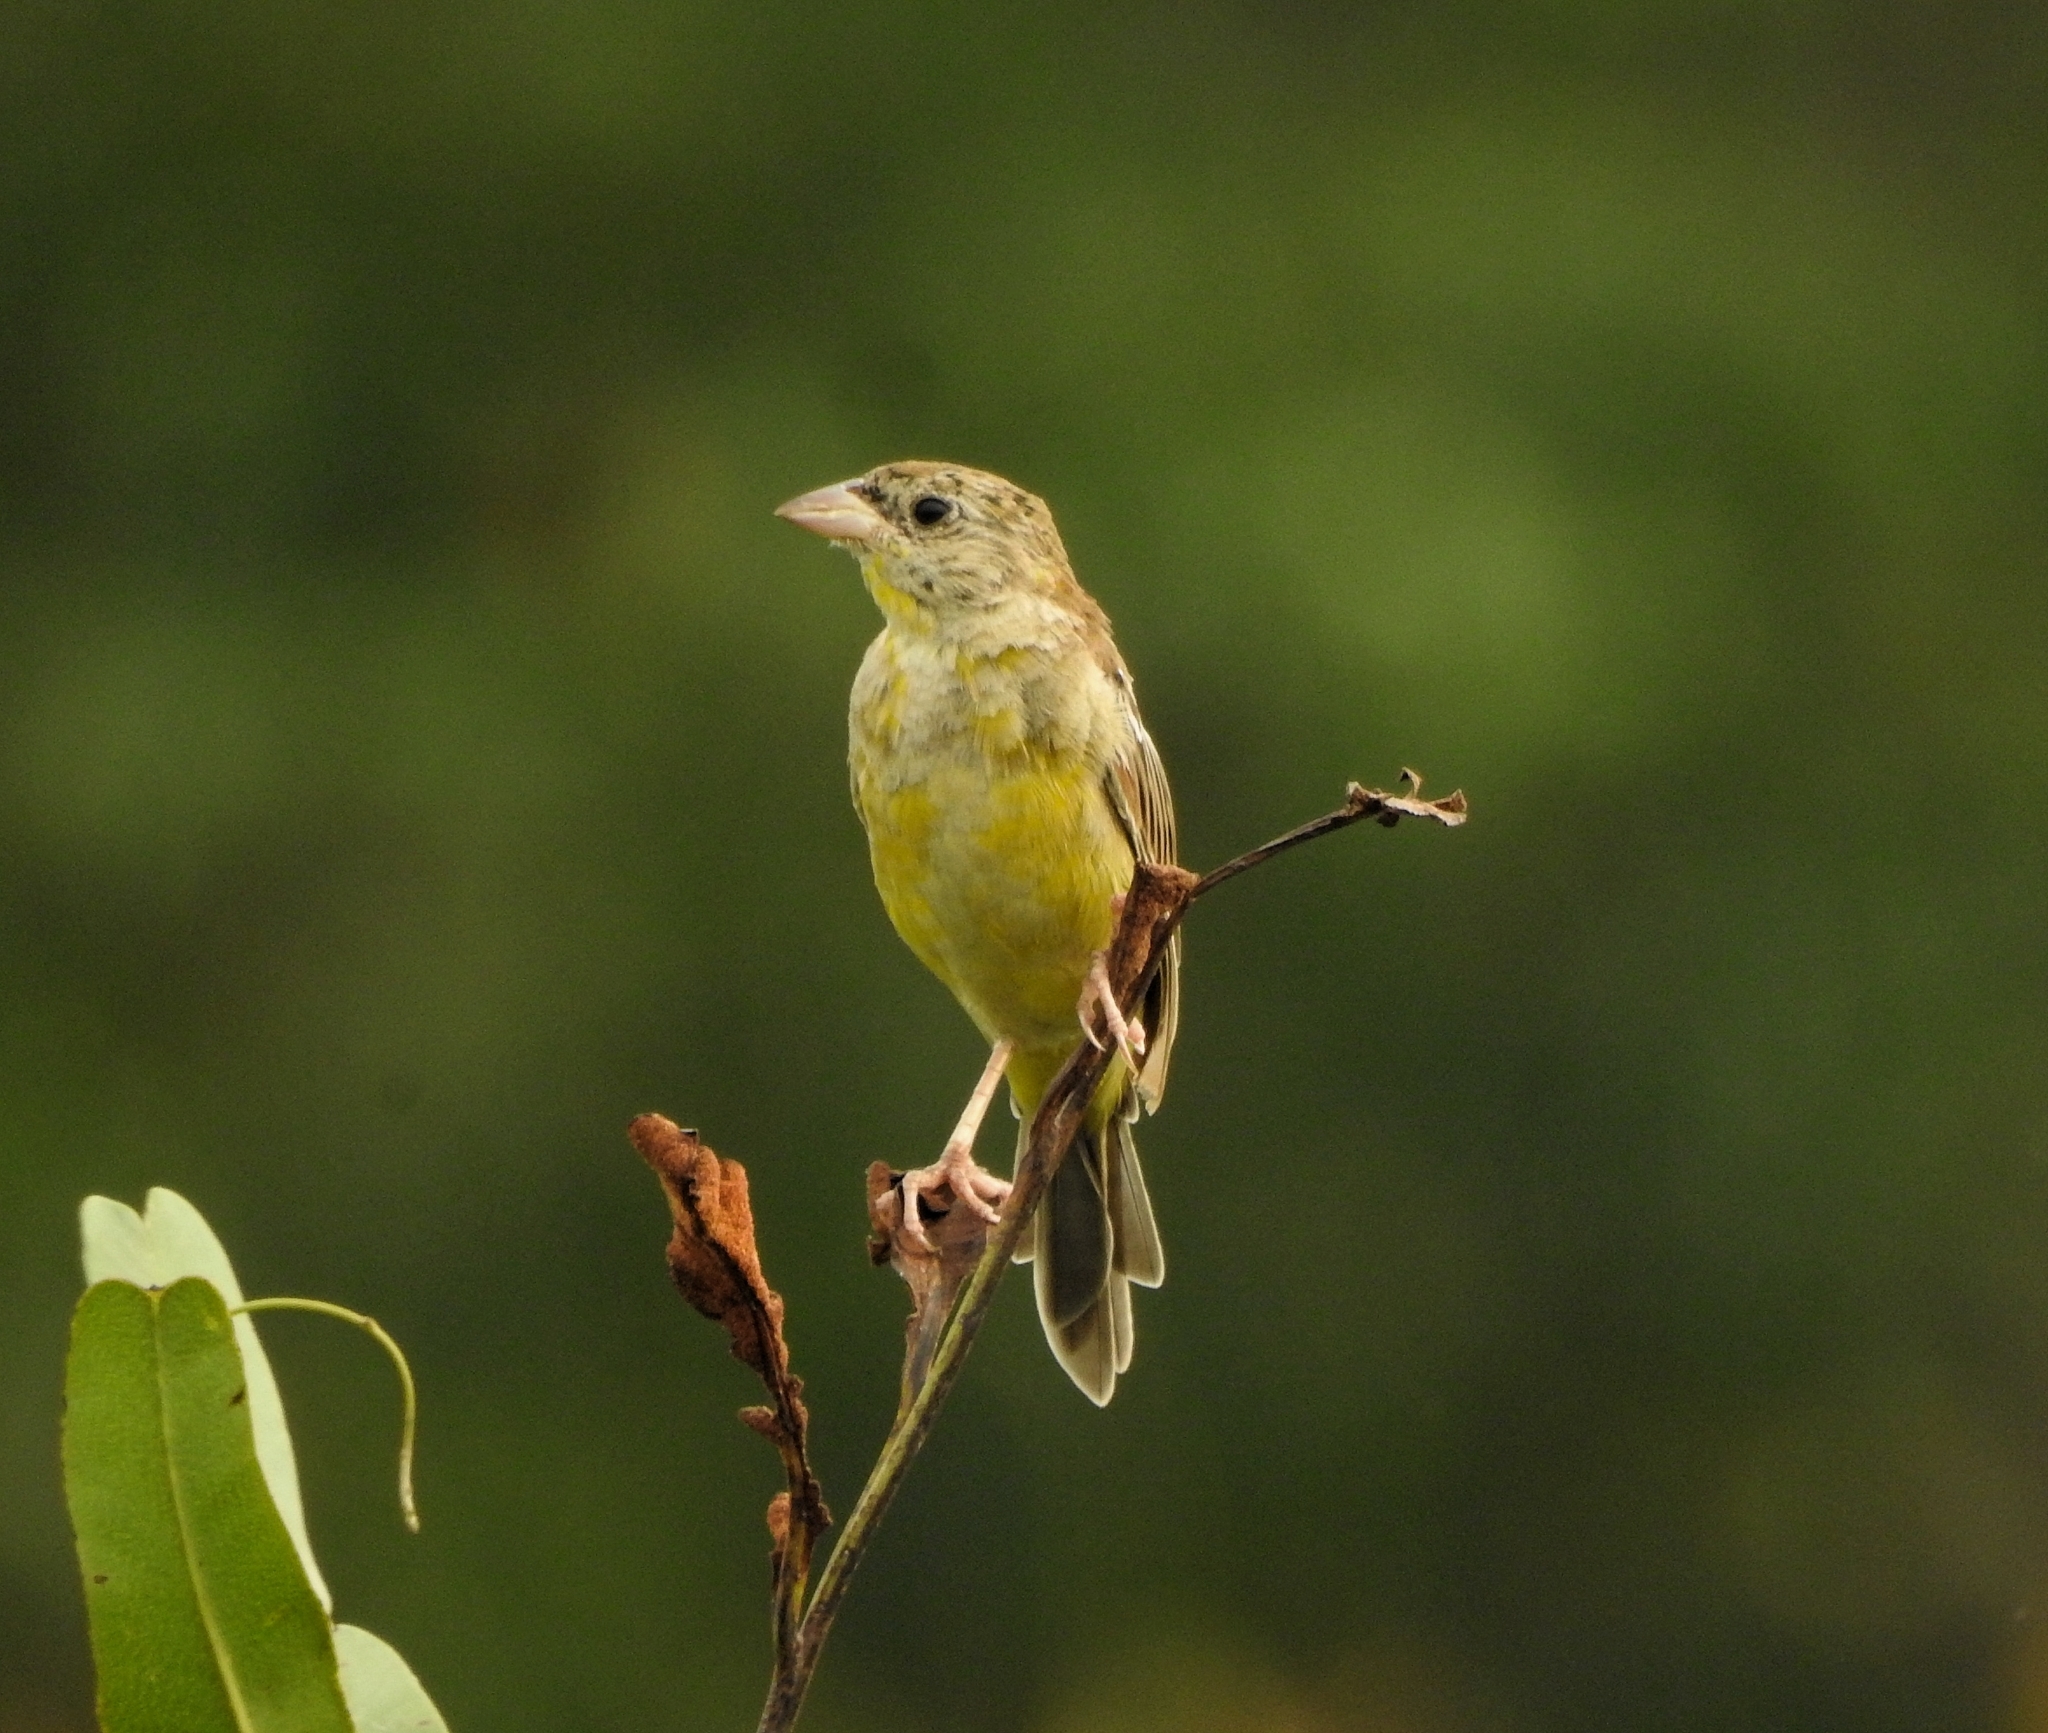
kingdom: Animalia
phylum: Chordata
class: Aves
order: Passeriformes
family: Emberizidae
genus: Emberiza
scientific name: Emberiza melanocephala
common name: Black-headed bunting
